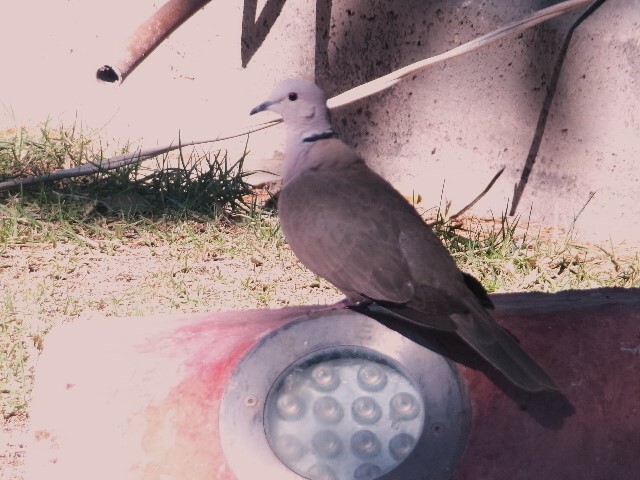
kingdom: Animalia
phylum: Chordata
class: Aves
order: Columbiformes
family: Columbidae
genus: Streptopelia
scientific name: Streptopelia decaocto
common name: Eurasian collared dove
